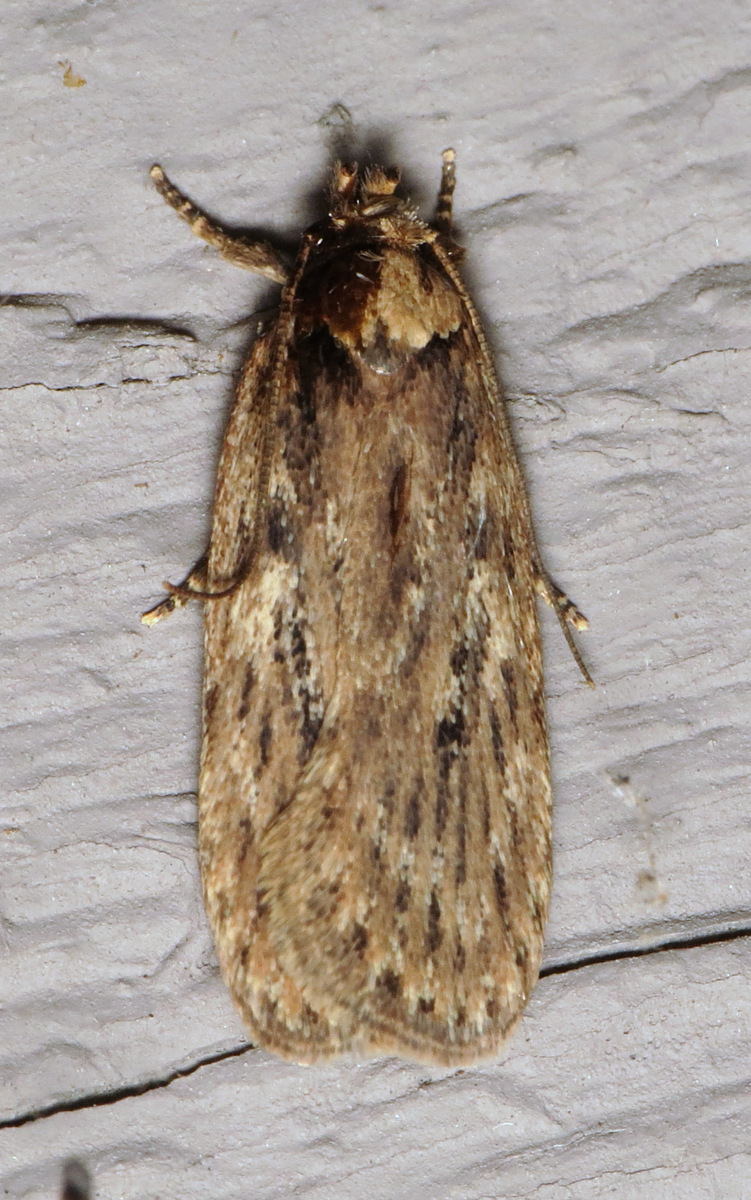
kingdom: Animalia
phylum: Arthropoda
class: Insecta
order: Lepidoptera
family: Depressariidae
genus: Depressaria
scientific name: Depressaria radiella
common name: Parsnip moth
